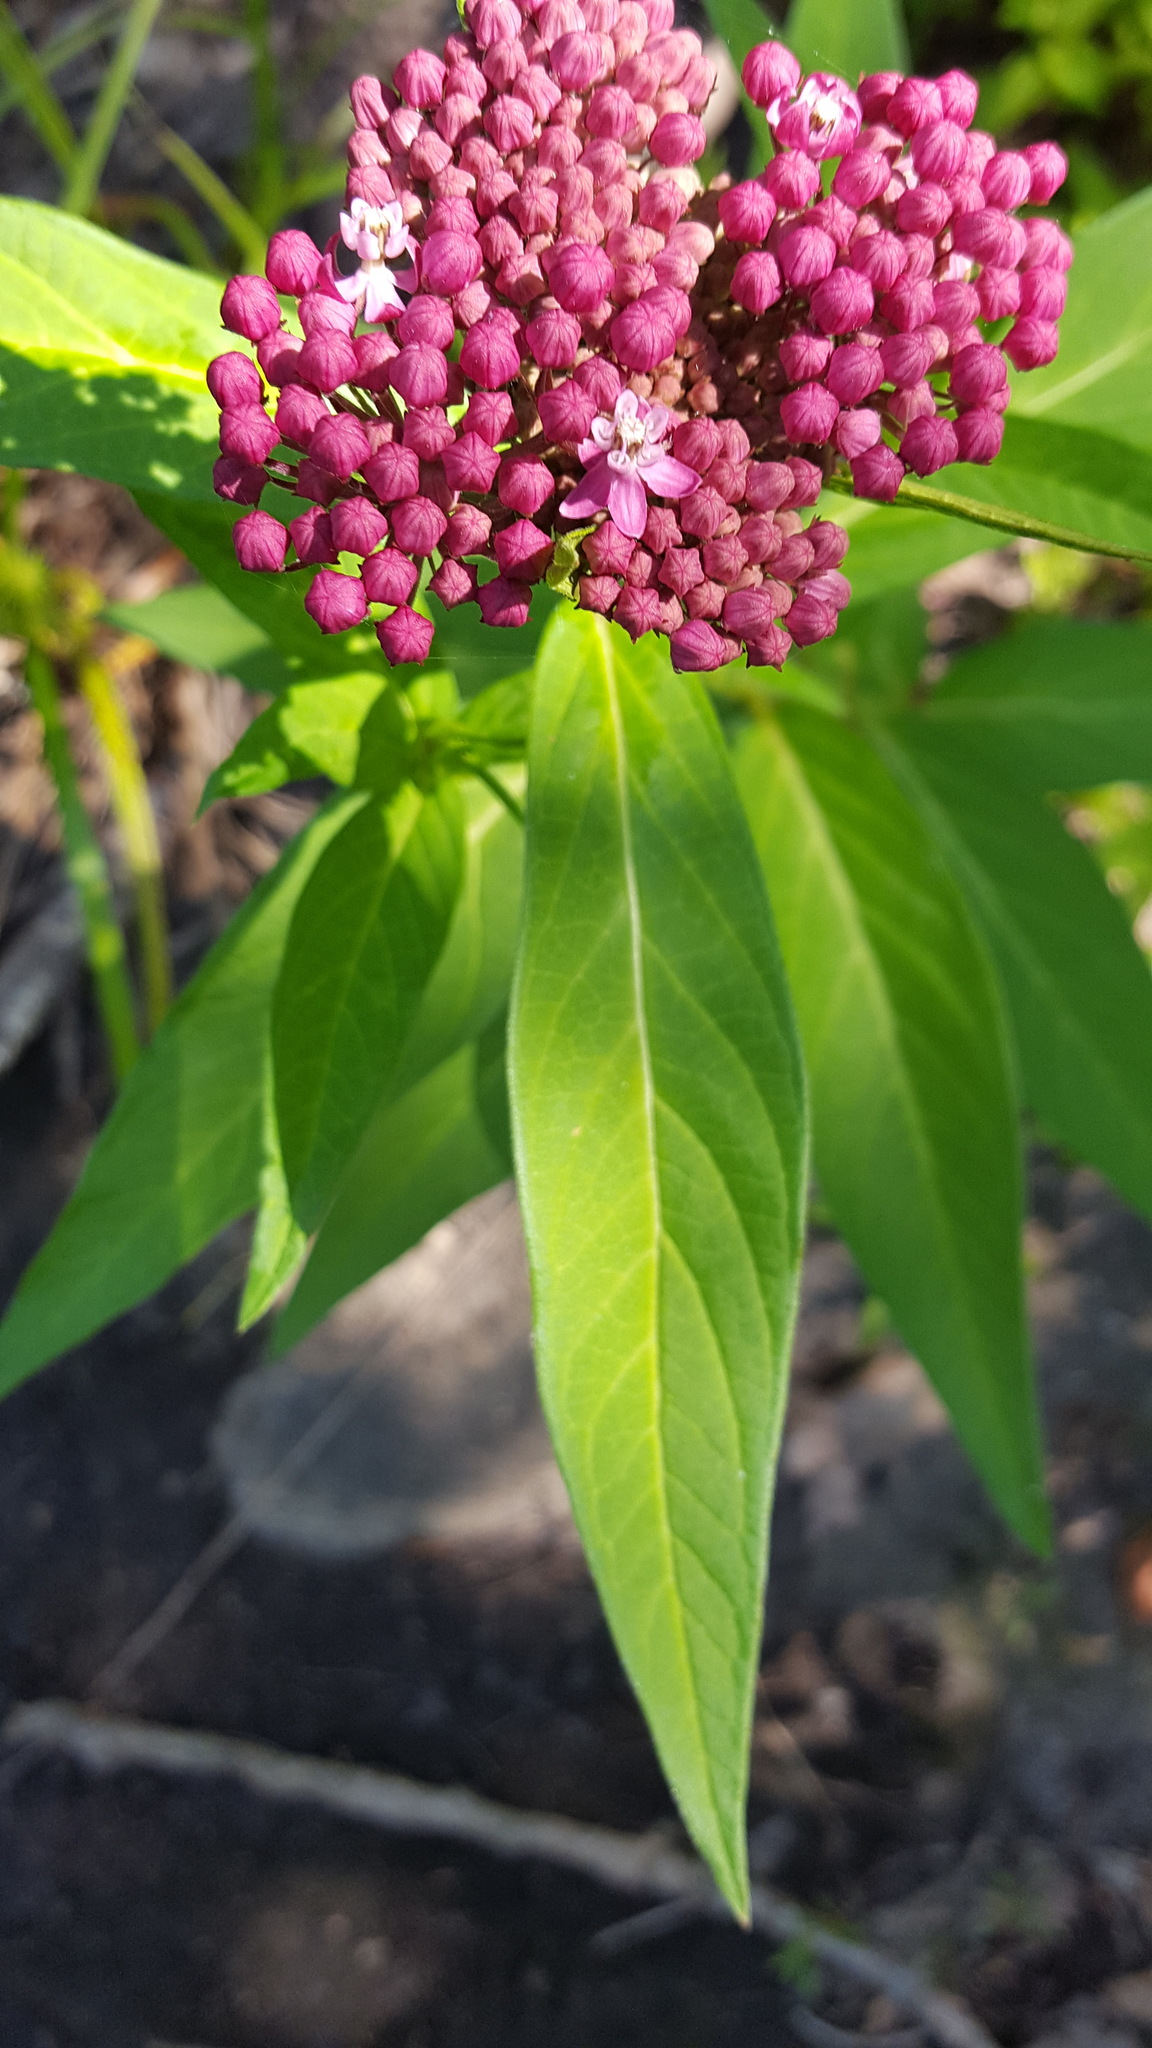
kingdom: Plantae
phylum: Tracheophyta
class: Magnoliopsida
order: Gentianales
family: Apocynaceae
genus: Asclepias
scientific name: Asclepias incarnata
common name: Swamp milkweed
